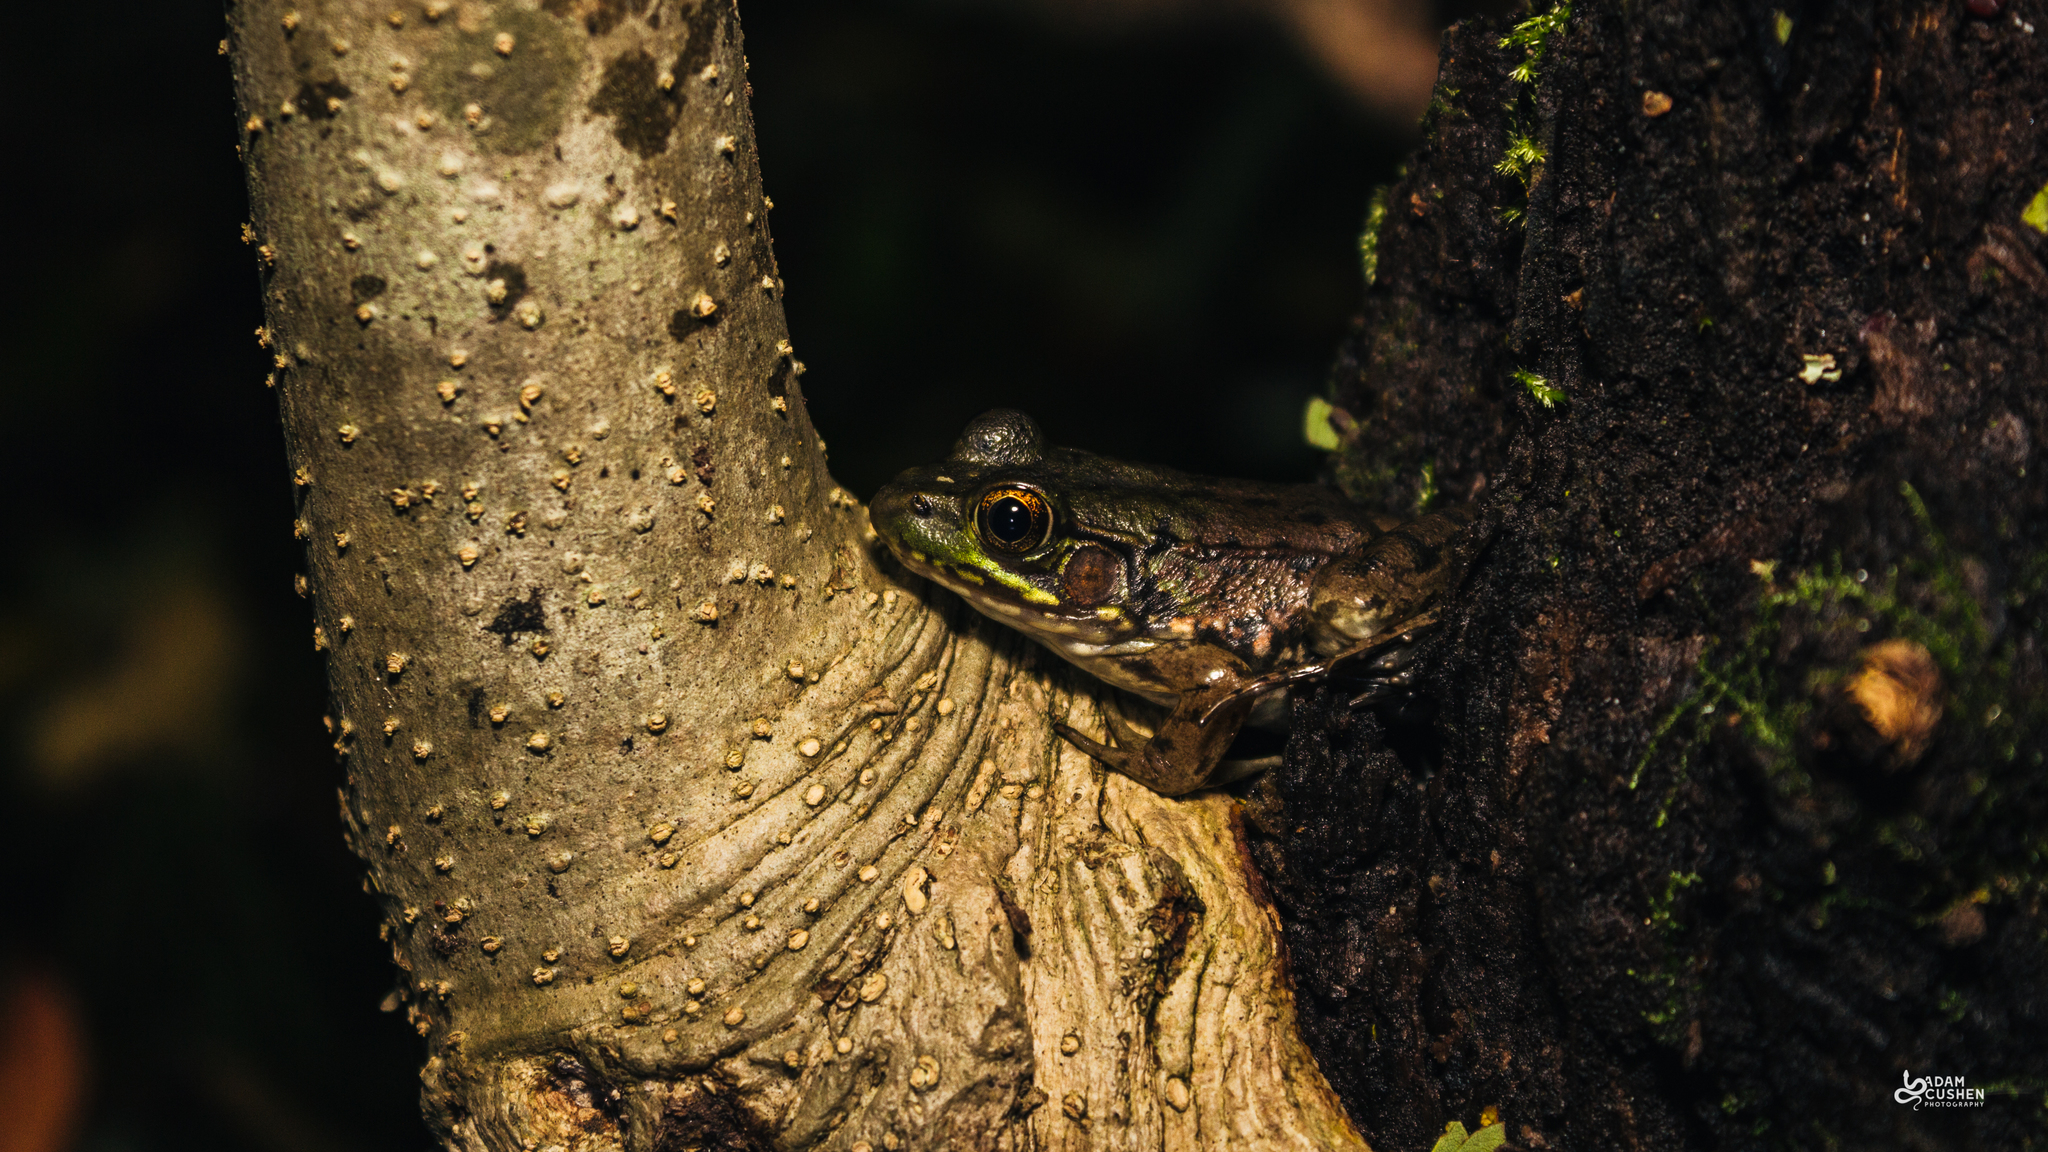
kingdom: Animalia
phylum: Chordata
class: Amphibia
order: Anura
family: Ranidae
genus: Lithobates
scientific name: Lithobates clamitans
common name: Green frog
